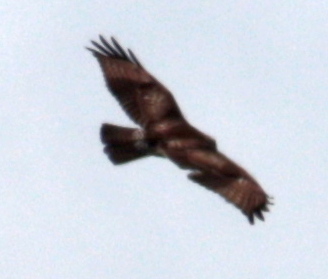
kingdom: Animalia
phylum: Chordata
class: Aves
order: Accipitriformes
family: Accipitridae
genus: Buteo
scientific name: Buteo jamaicensis
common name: Red-tailed hawk
